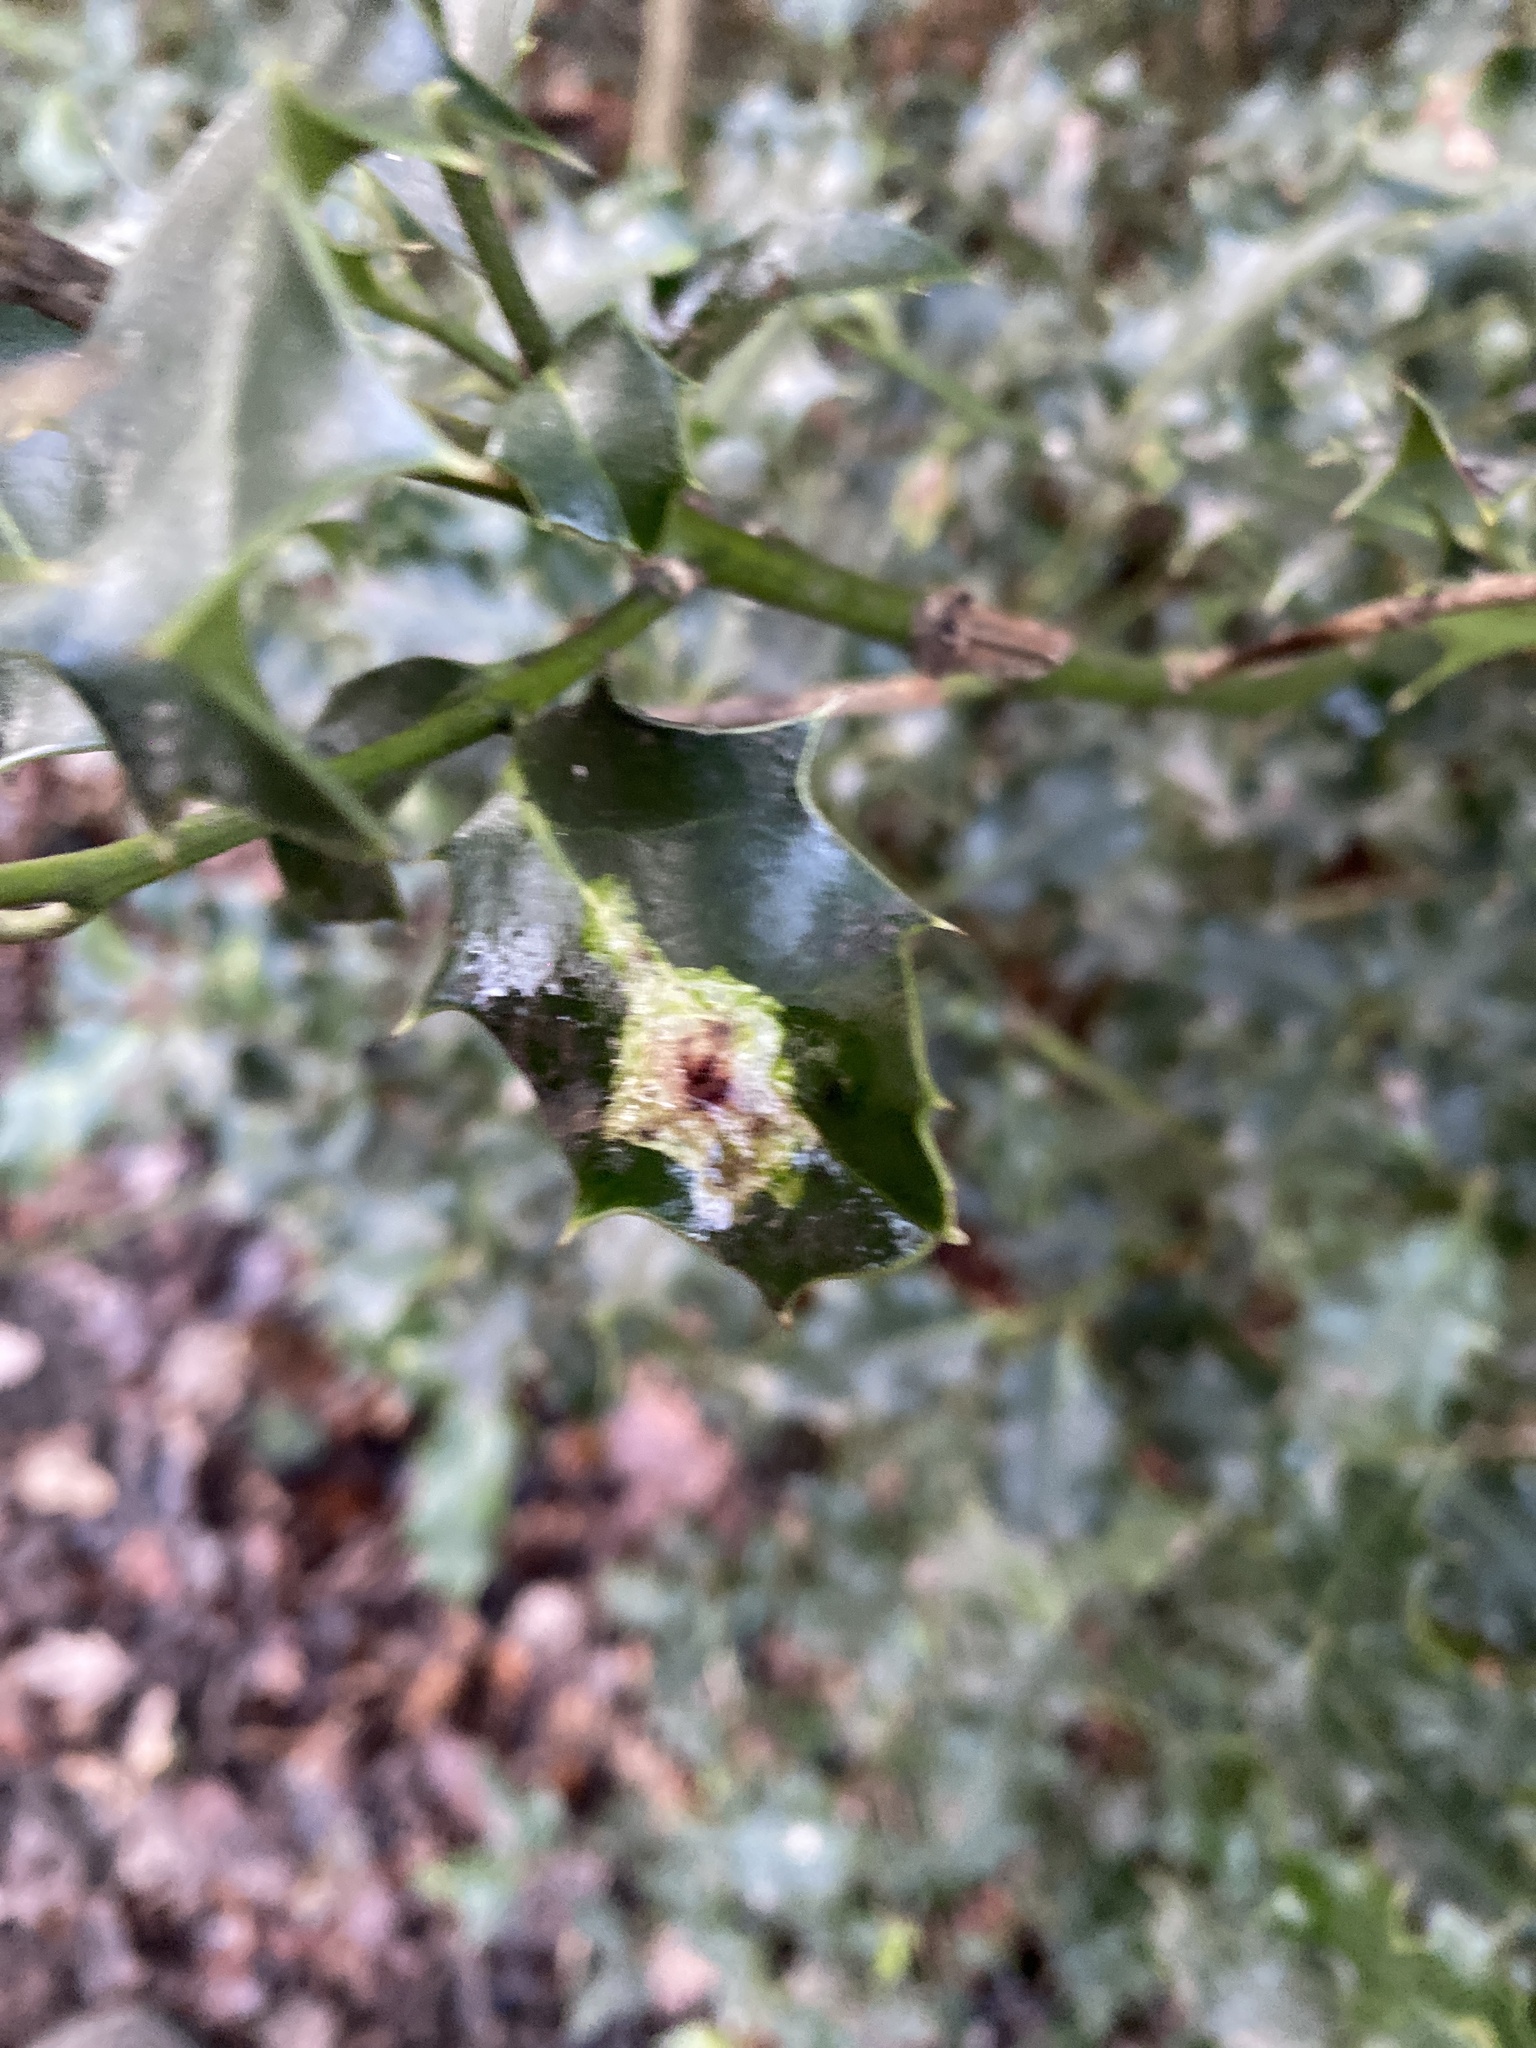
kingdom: Animalia
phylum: Arthropoda
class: Insecta
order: Diptera
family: Agromyzidae
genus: Phytomyza
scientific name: Phytomyza ilicis
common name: Holly leafminer
